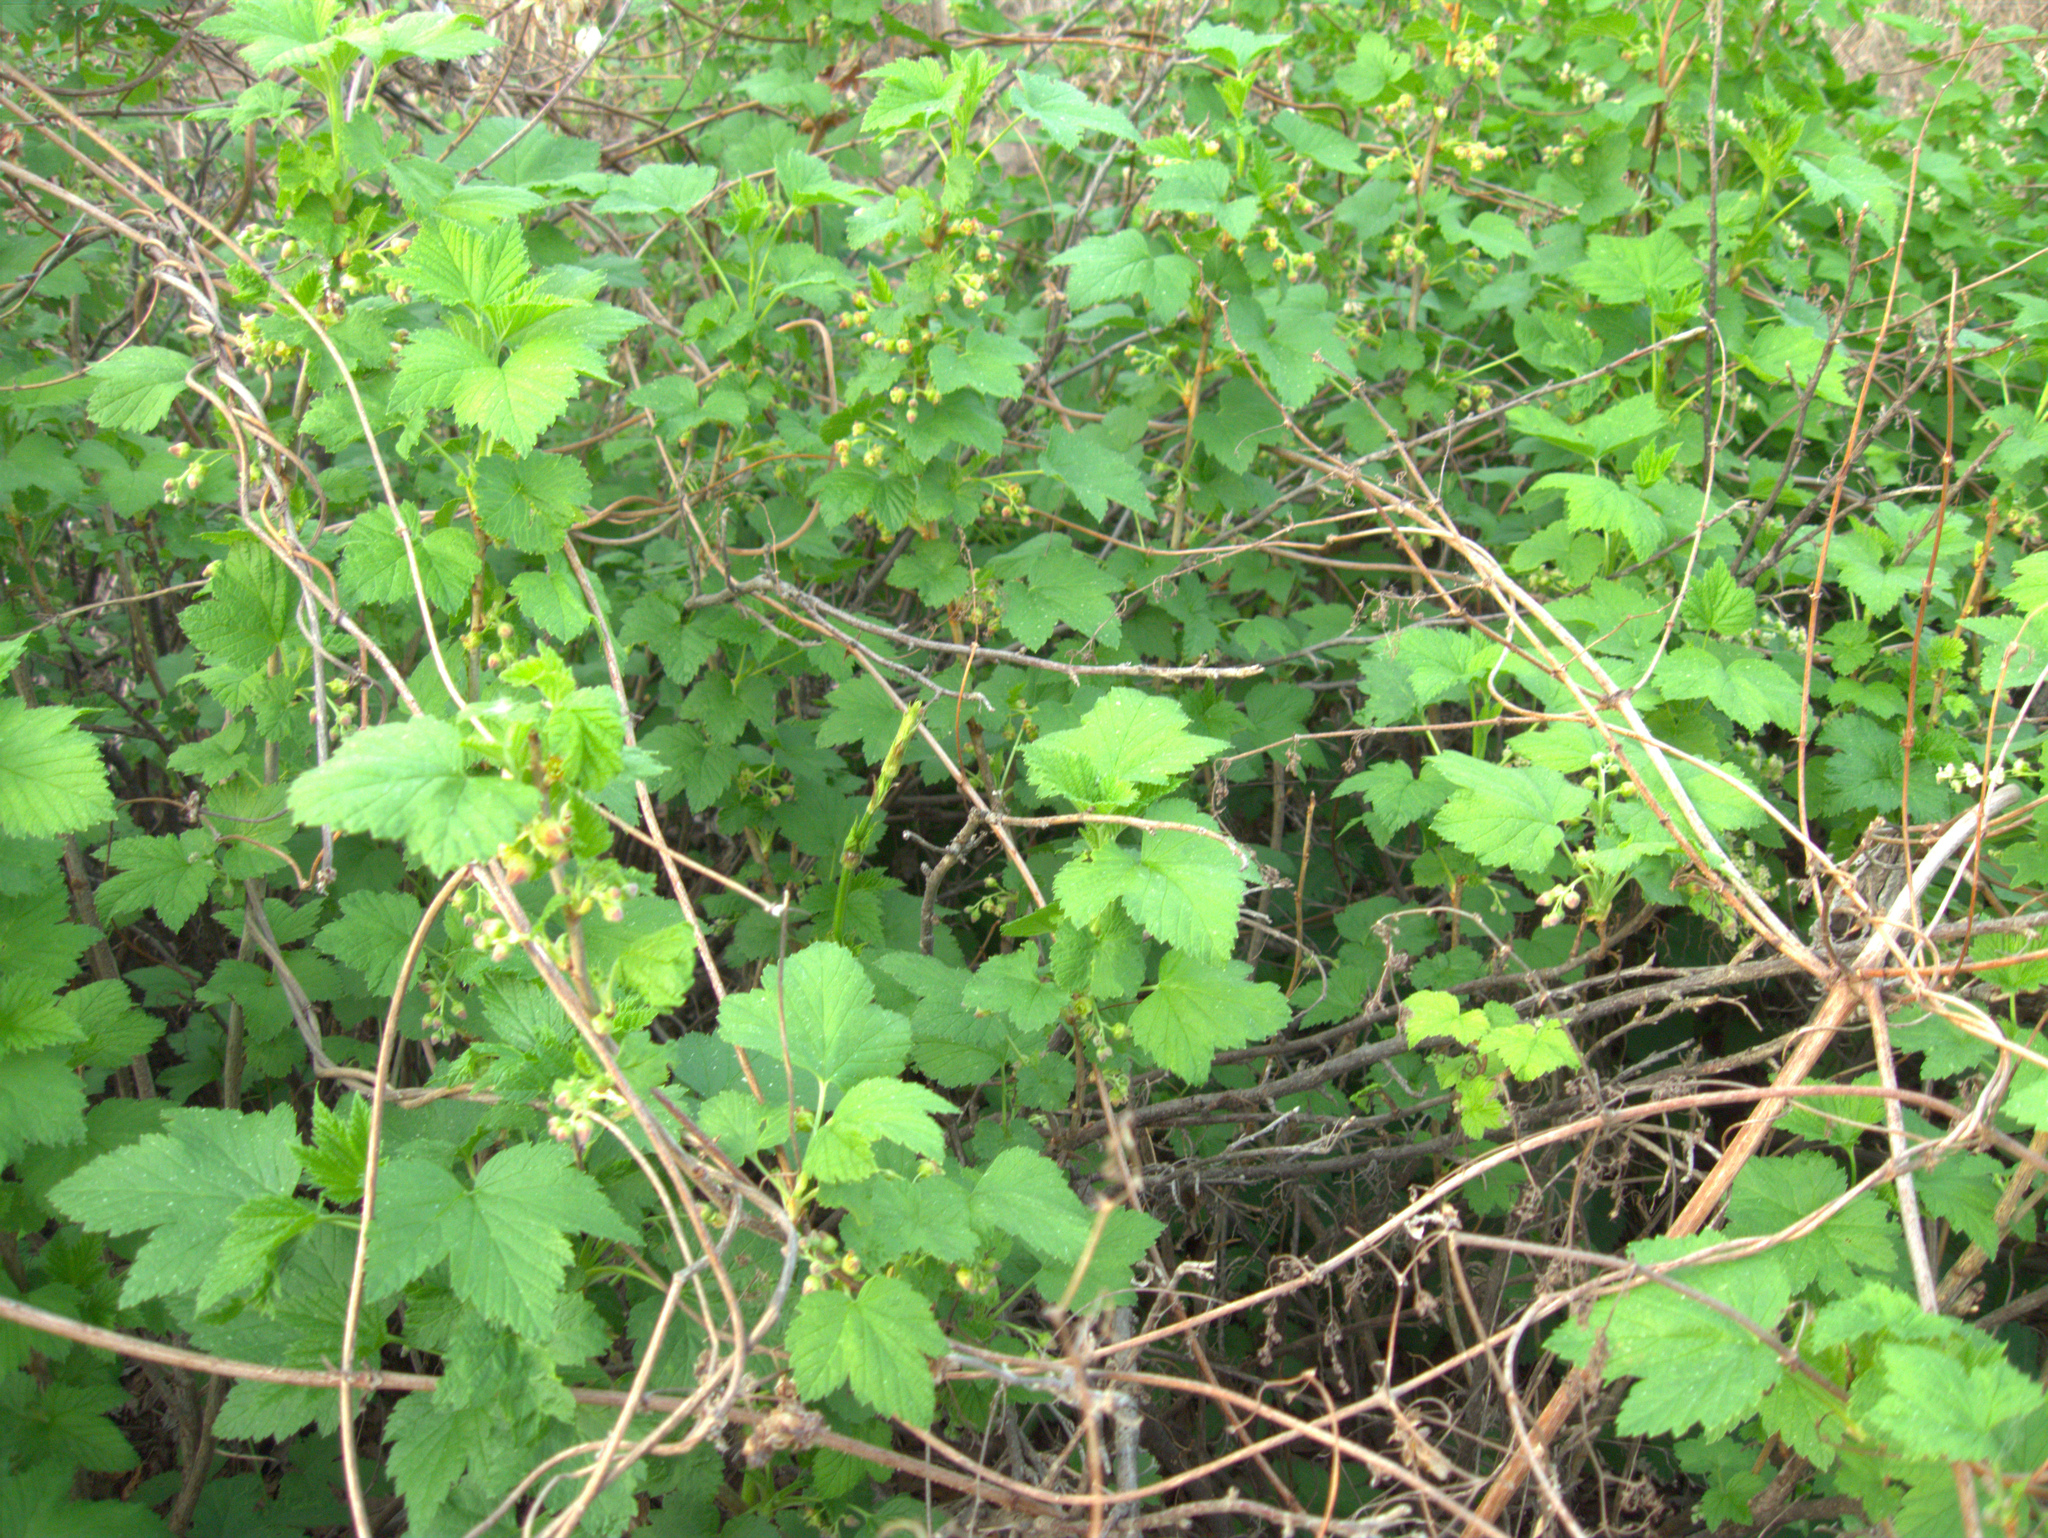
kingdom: Plantae
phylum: Tracheophyta
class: Magnoliopsida
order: Saxifragales
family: Grossulariaceae
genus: Ribes
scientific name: Ribes nigrum
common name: Black currant
